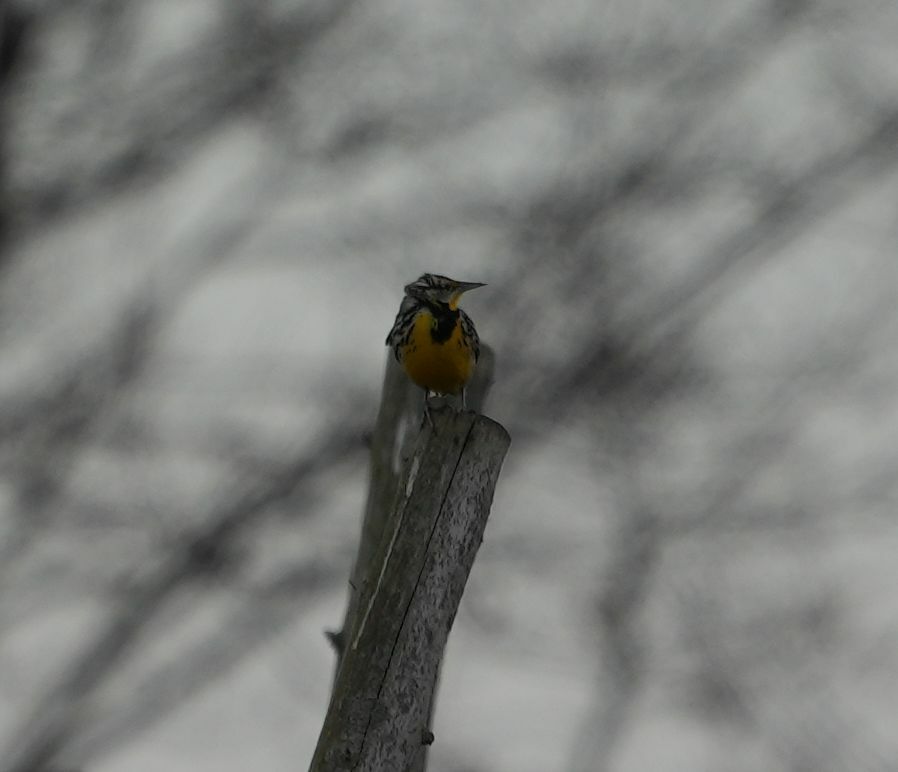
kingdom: Animalia
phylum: Chordata
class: Aves
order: Passeriformes
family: Icteridae
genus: Sturnella
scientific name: Sturnella magna
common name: Eastern meadowlark
